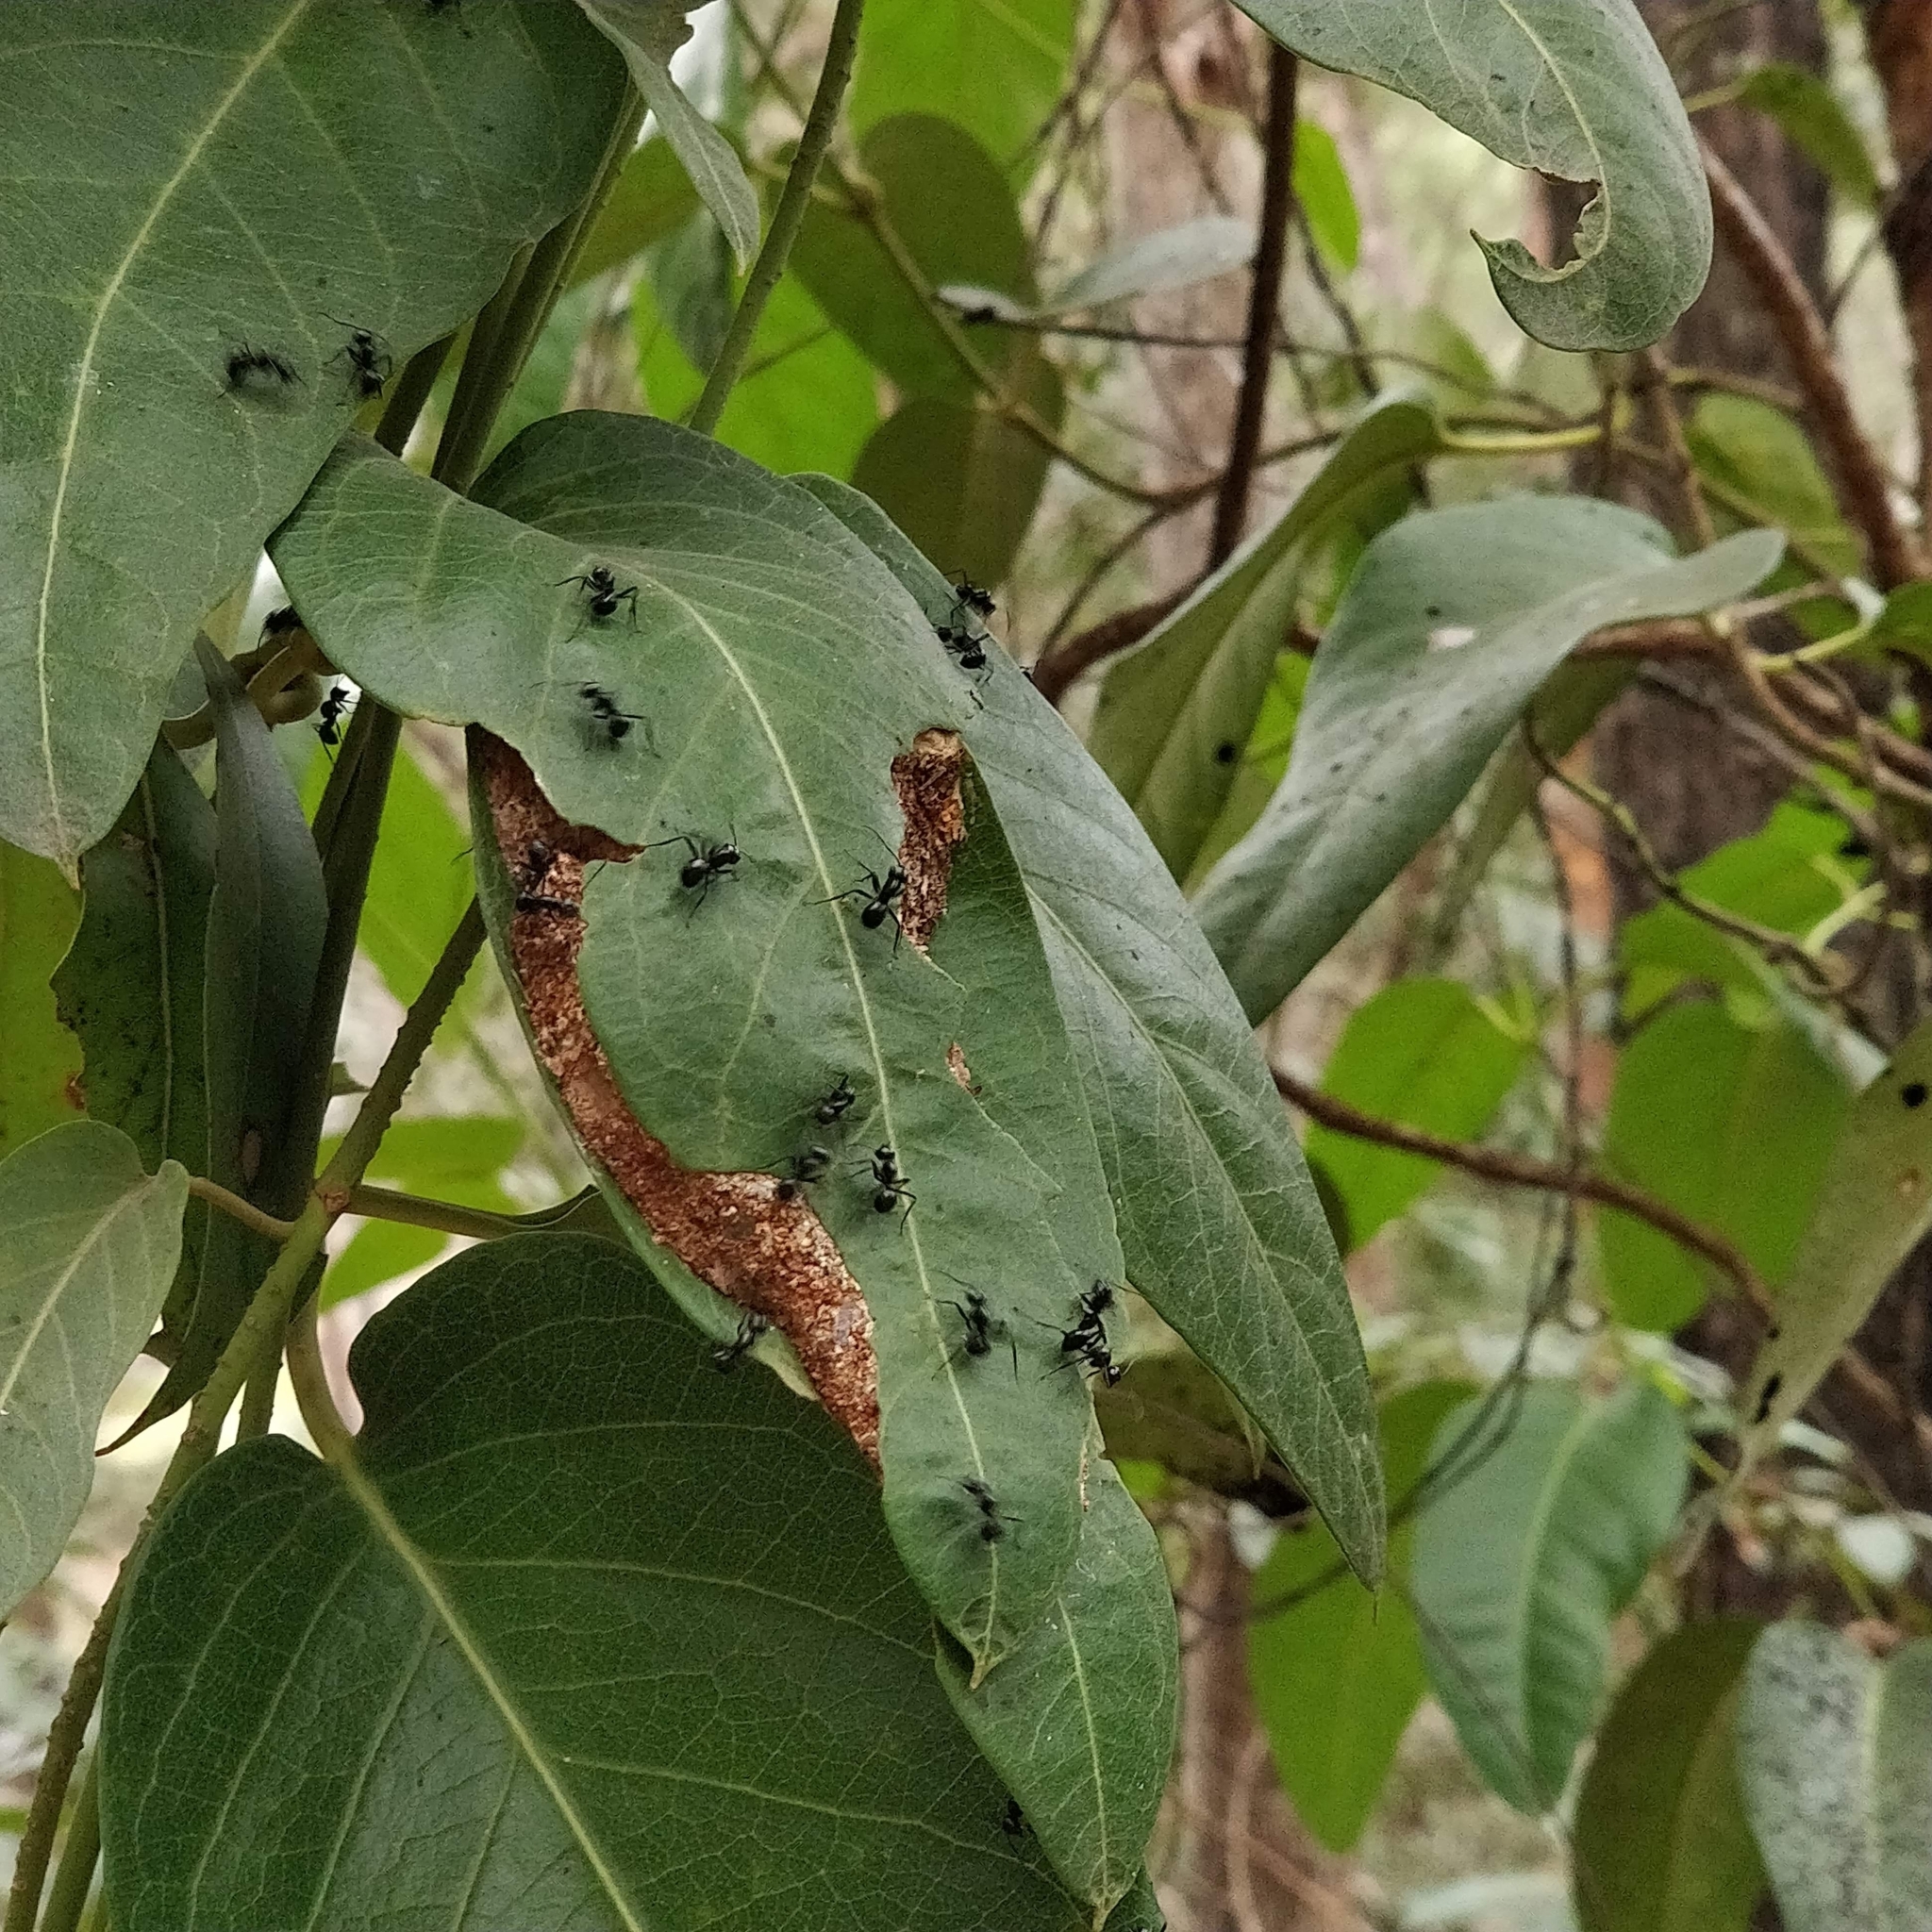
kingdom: Animalia
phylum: Arthropoda
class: Insecta
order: Hymenoptera
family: Formicidae
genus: Polyrhachis
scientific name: Polyrhachis australis
